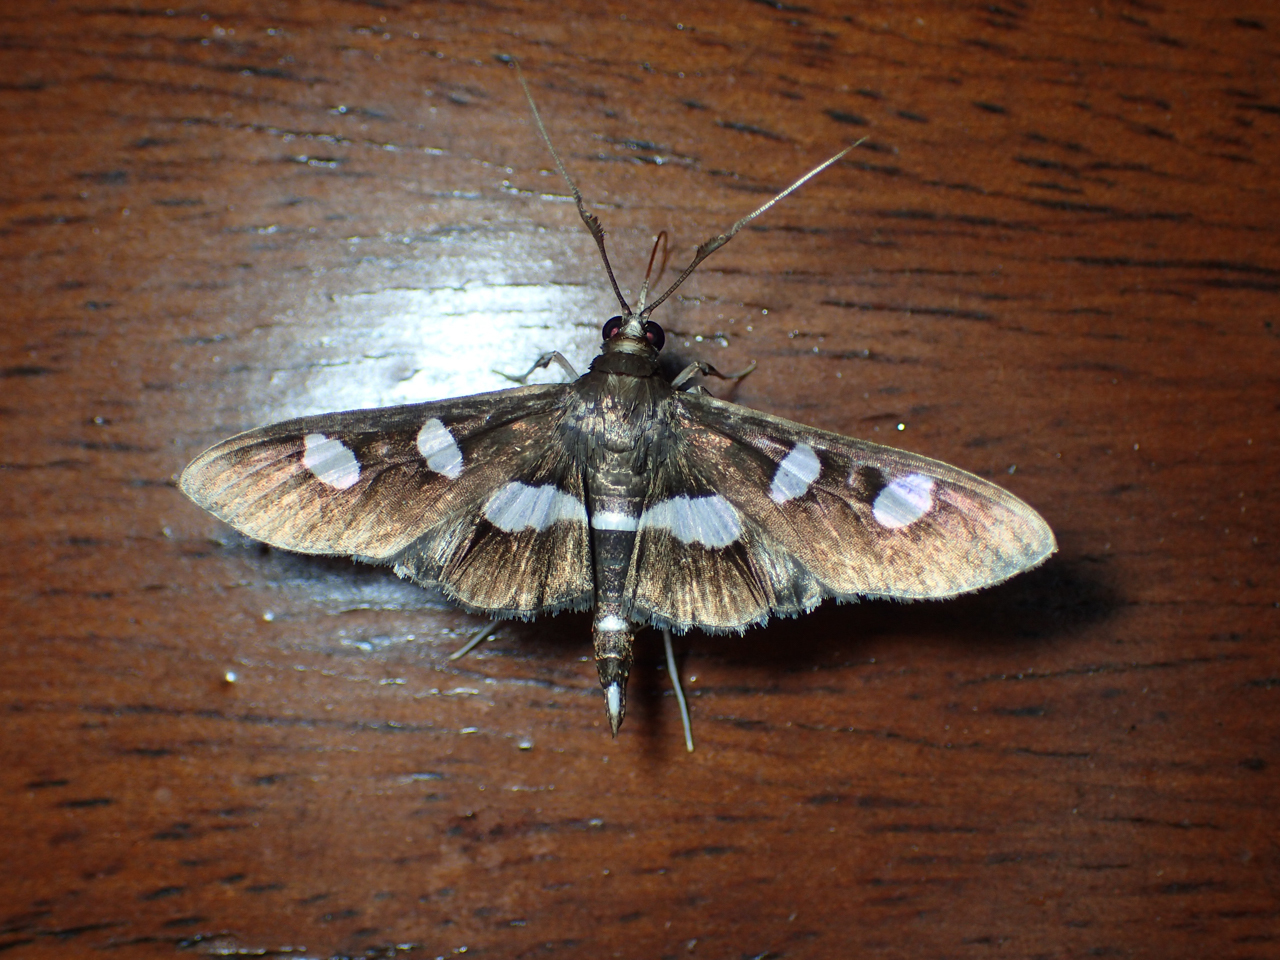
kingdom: Animalia
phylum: Arthropoda
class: Insecta
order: Lepidoptera
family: Crambidae
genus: Desmia
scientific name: Desmia funeralis
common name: Grape leaf folder moth
